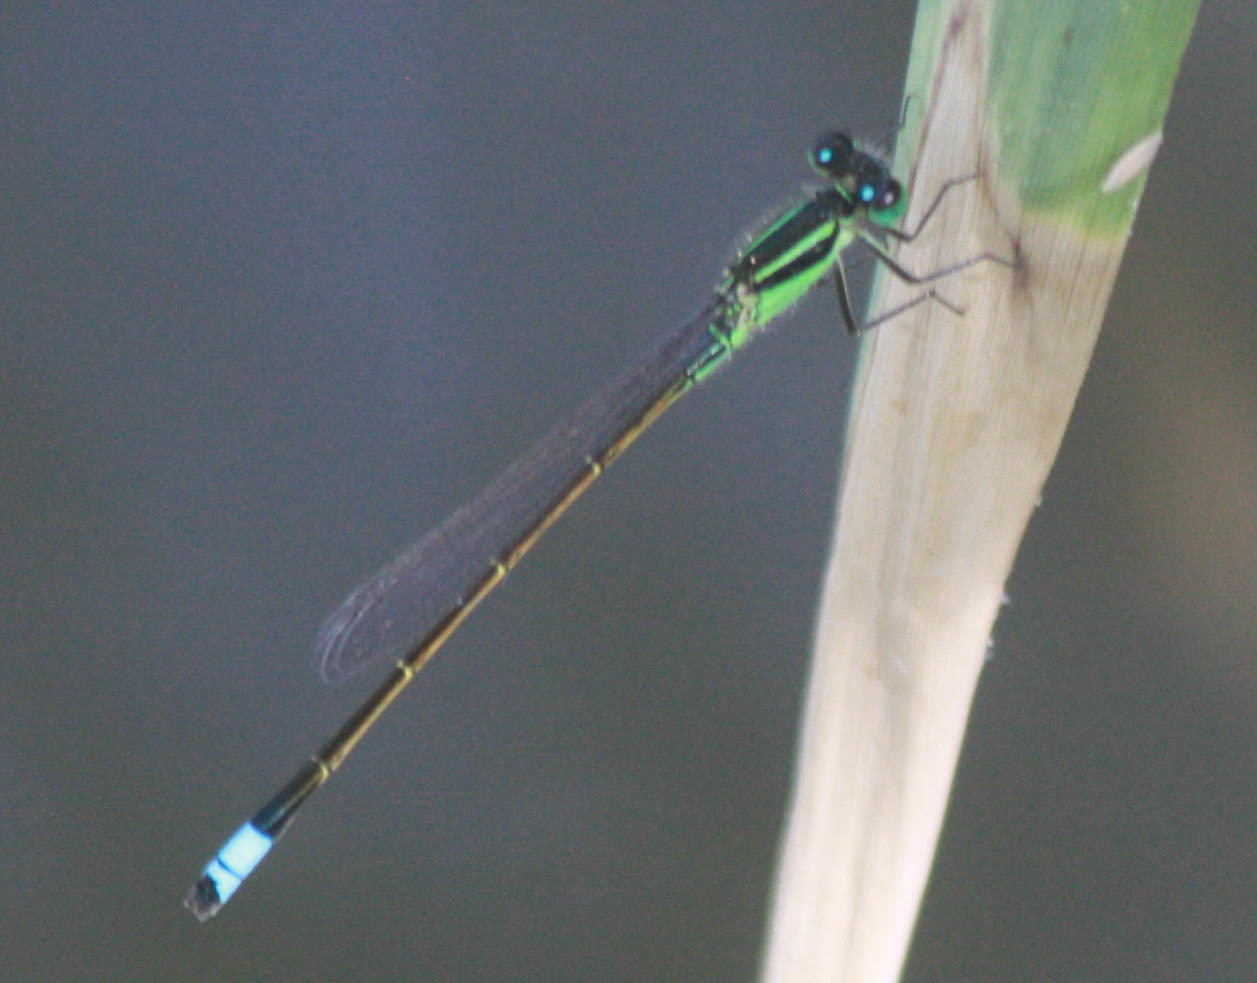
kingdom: Animalia
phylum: Arthropoda
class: Insecta
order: Odonata
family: Coenagrionidae
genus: Ischnura
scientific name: Ischnura ramburii
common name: Rambur's forktail
